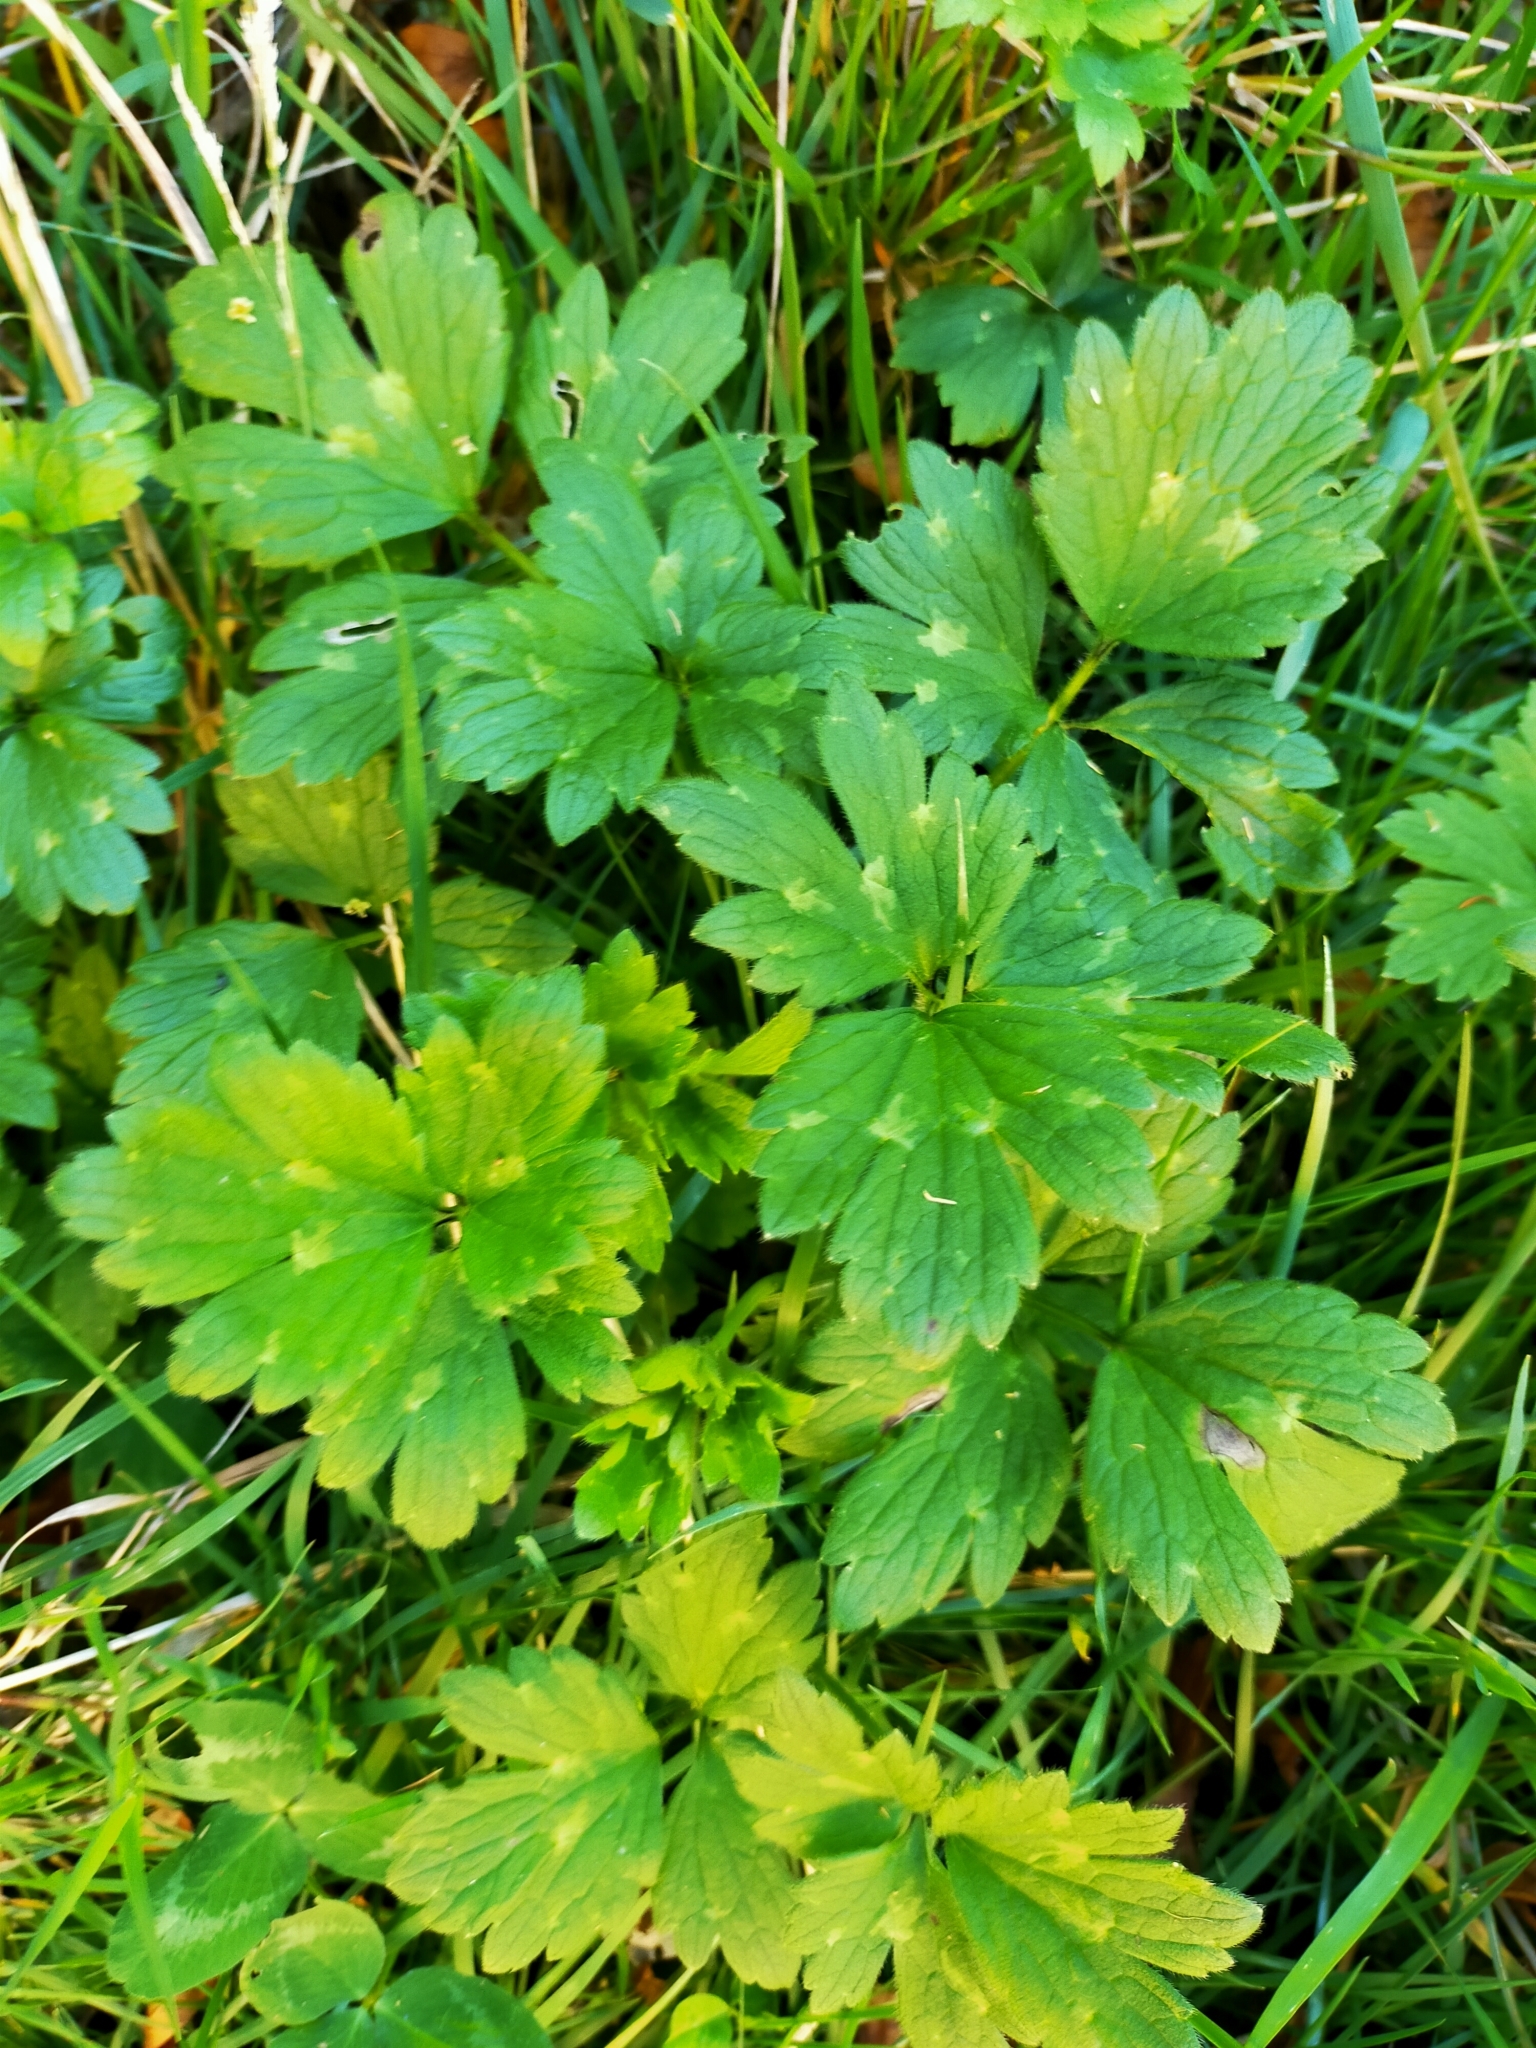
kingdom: Plantae
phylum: Tracheophyta
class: Magnoliopsida
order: Ranunculales
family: Ranunculaceae
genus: Ranunculus
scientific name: Ranunculus repens
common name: Creeping buttercup
